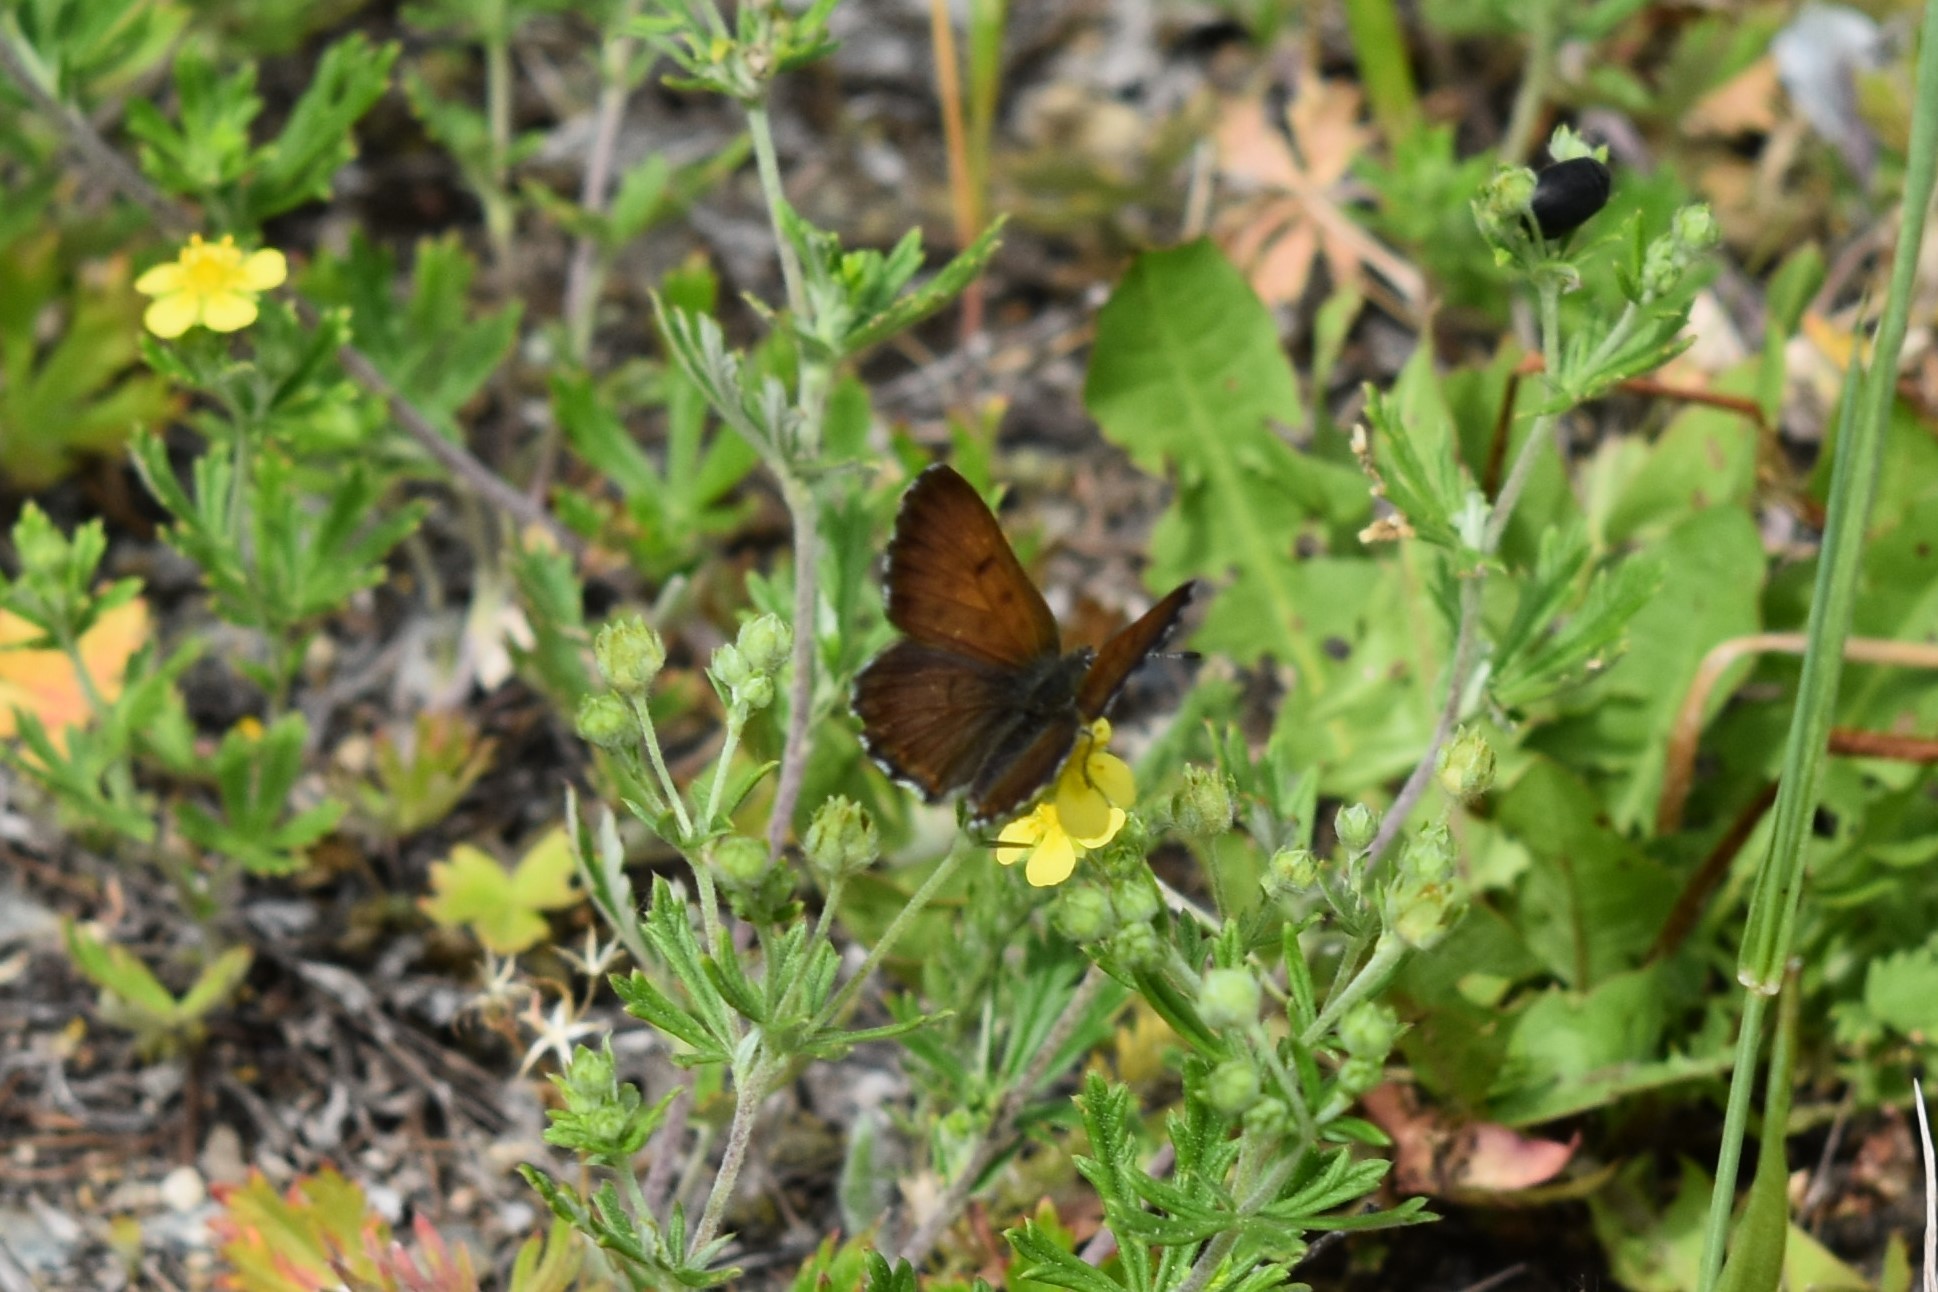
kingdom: Animalia
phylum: Arthropoda
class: Insecta
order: Lepidoptera
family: Lycaenidae
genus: Tharsalea
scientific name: Tharsalea mariposa
